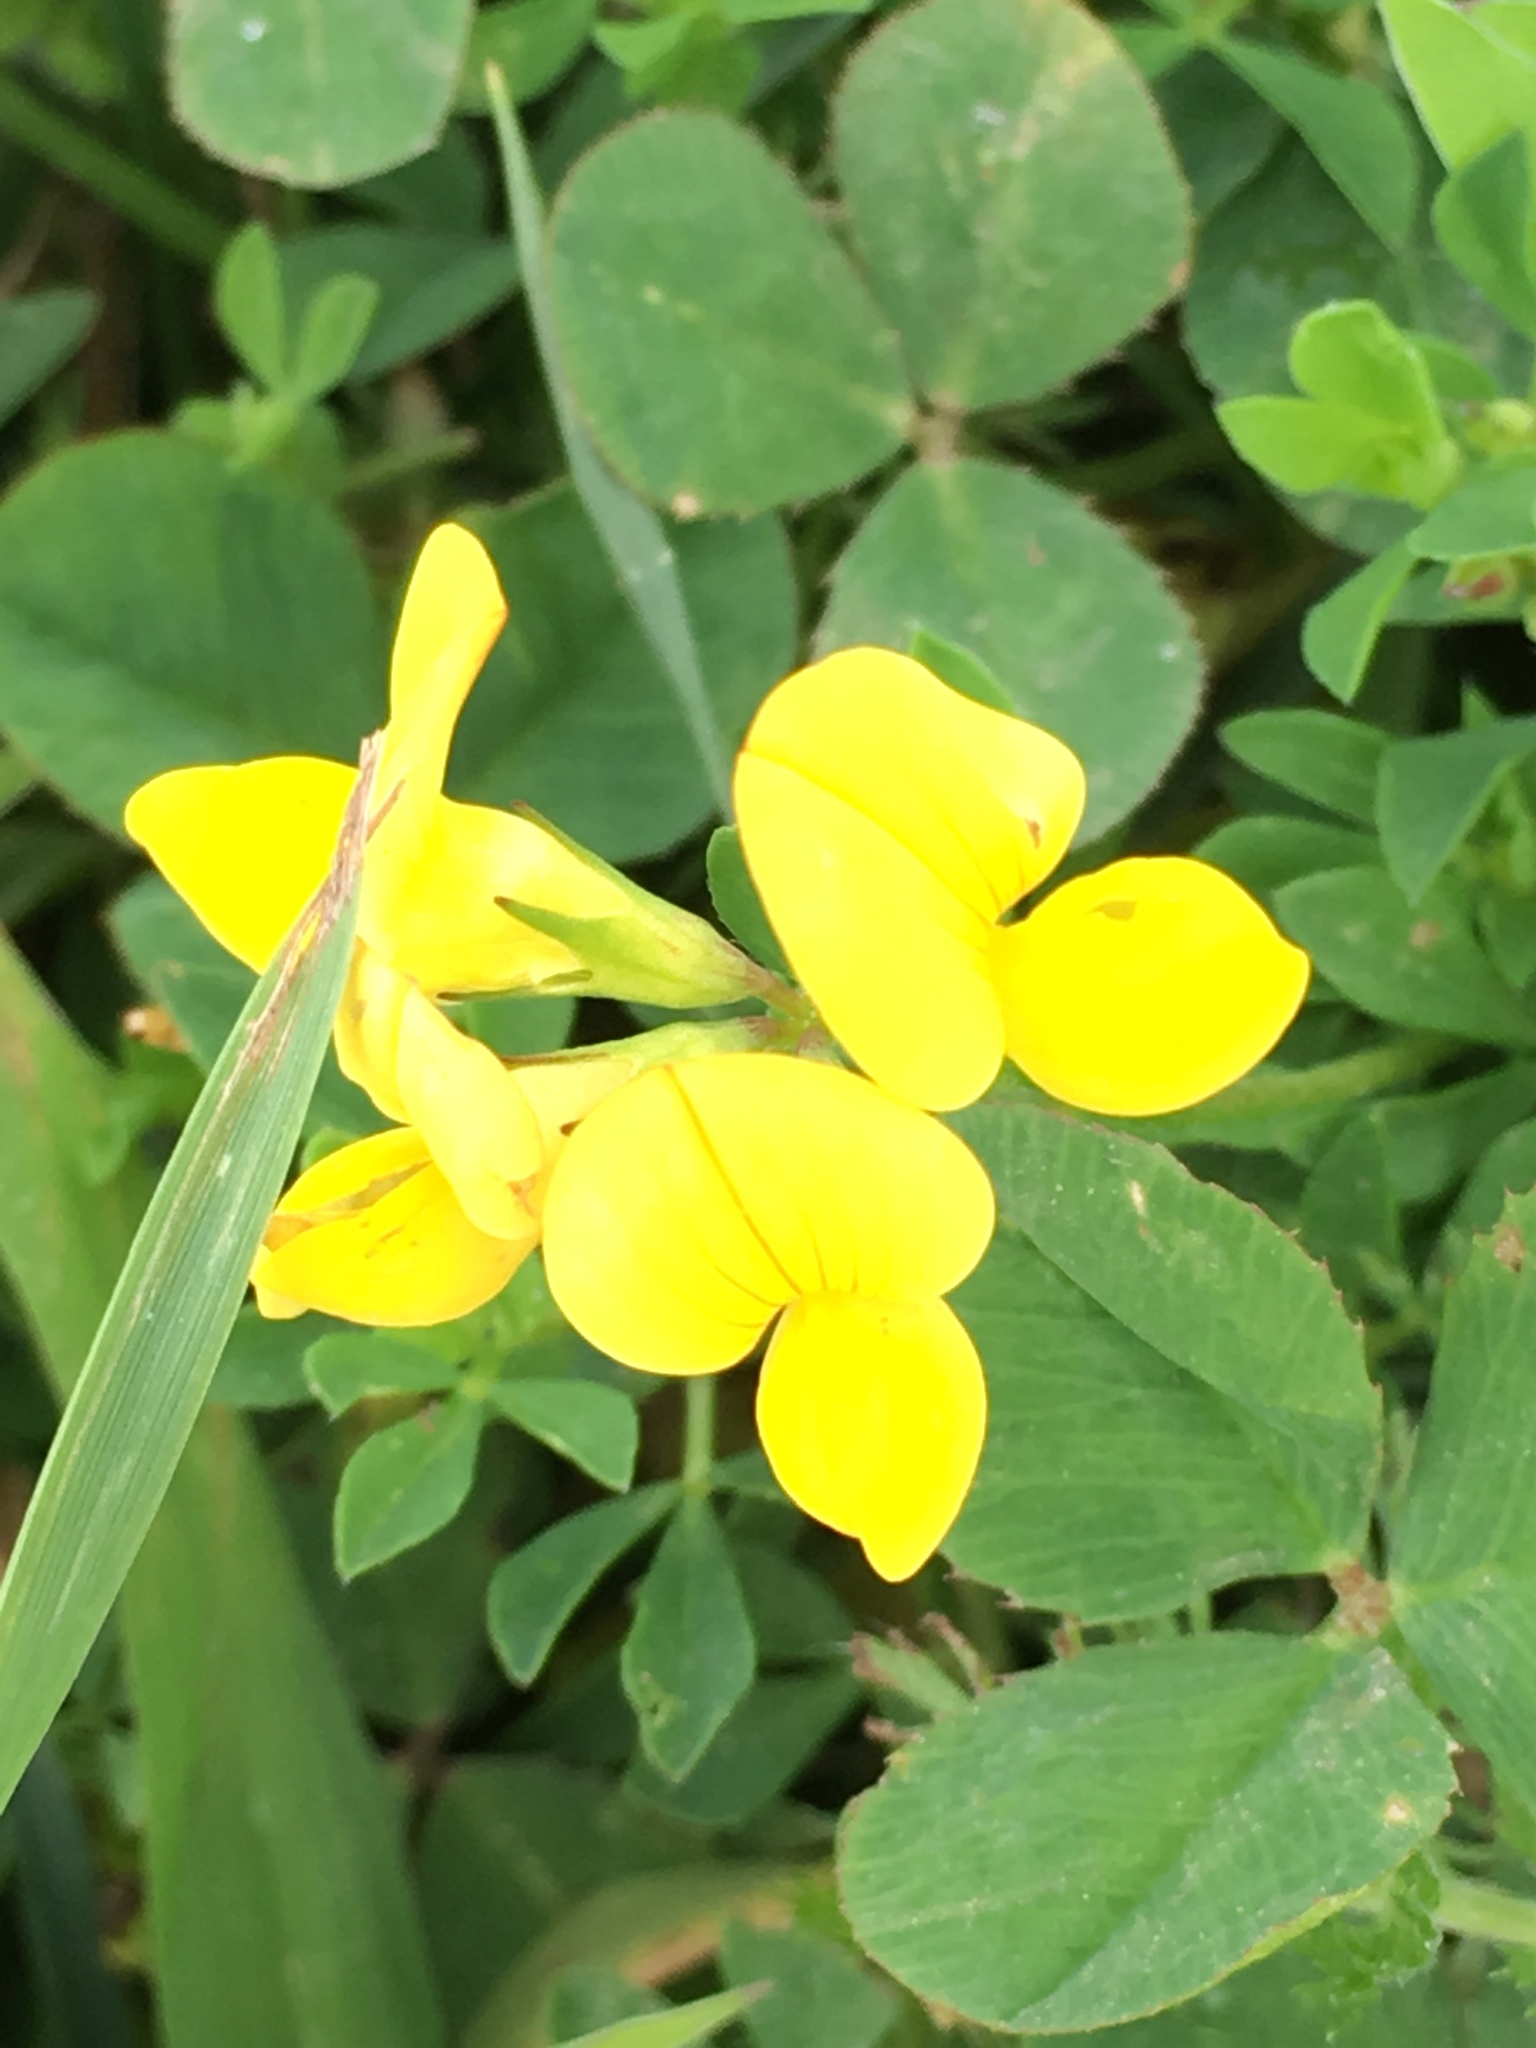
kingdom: Plantae
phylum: Tracheophyta
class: Magnoliopsida
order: Fabales
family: Fabaceae
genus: Lotus
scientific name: Lotus corniculatus
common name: Common bird's-foot-trefoil
